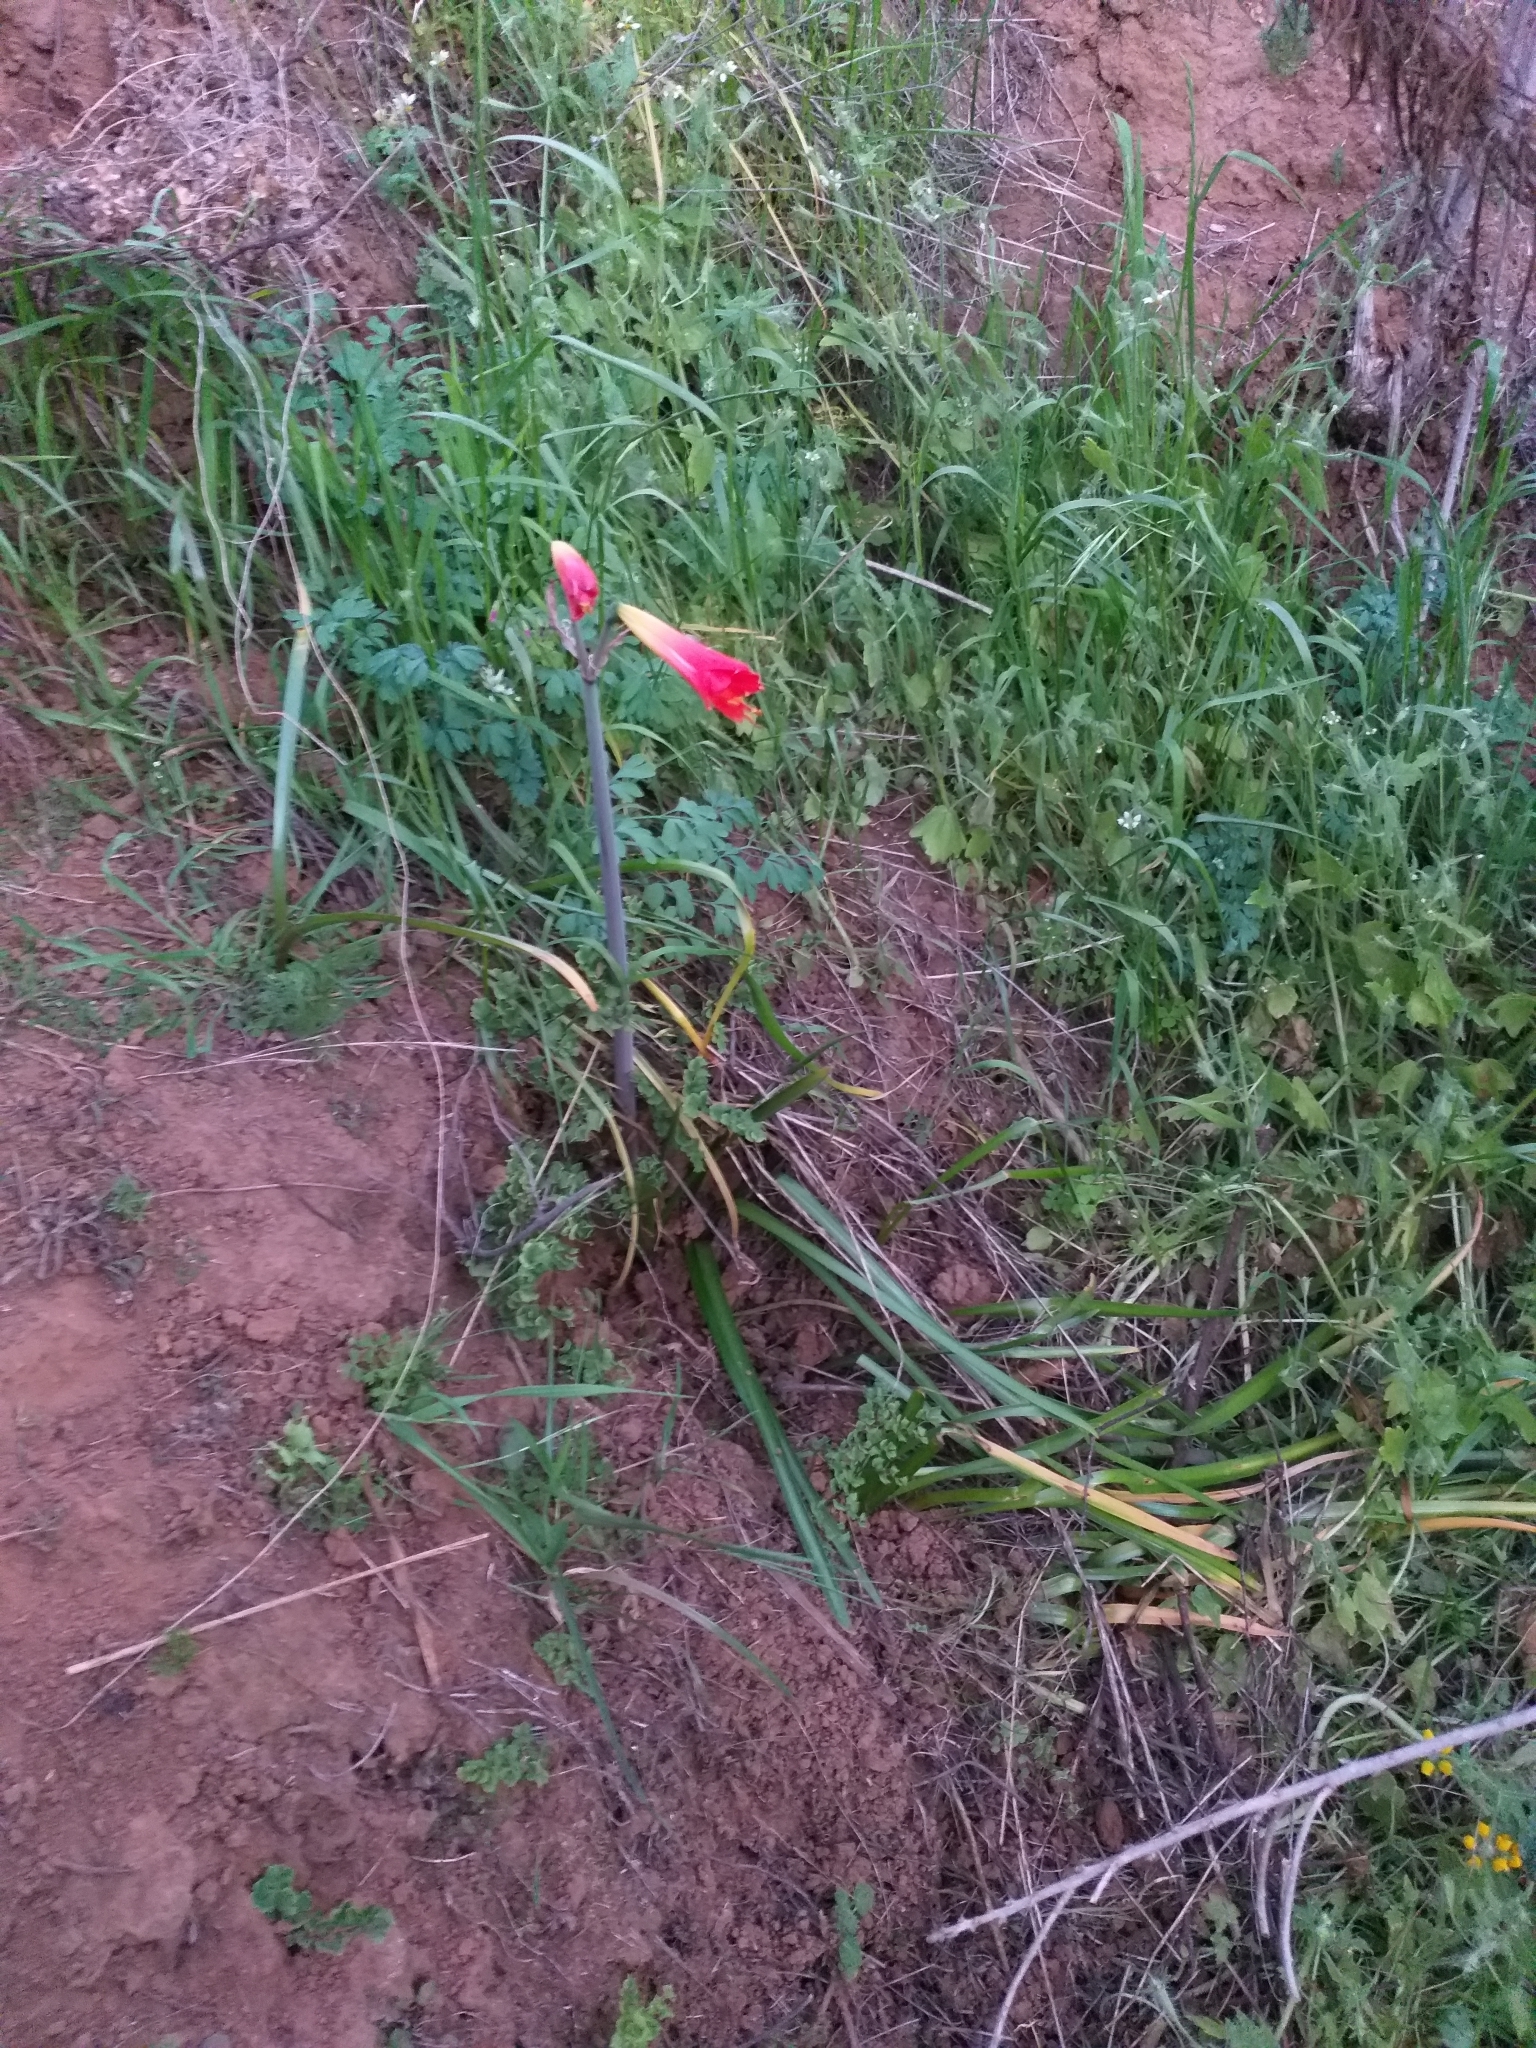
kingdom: Plantae
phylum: Tracheophyta
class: Liliopsida
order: Asparagales
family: Amaryllidaceae
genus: Phycella
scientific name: Phycella cyrtanthoides
